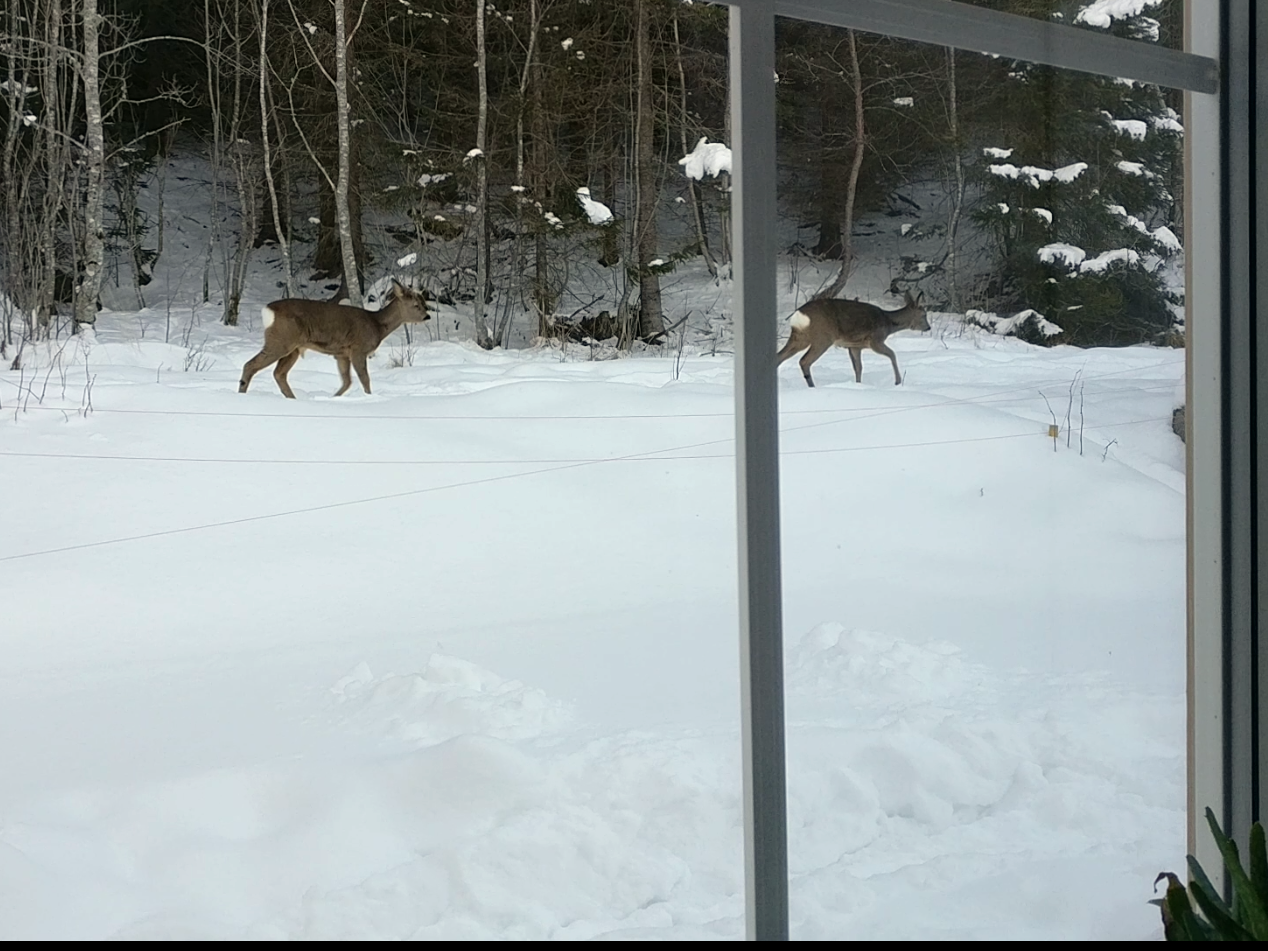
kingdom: Animalia
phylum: Chordata
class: Mammalia
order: Artiodactyla
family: Cervidae
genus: Capreolus
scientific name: Capreolus capreolus
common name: Western roe deer
